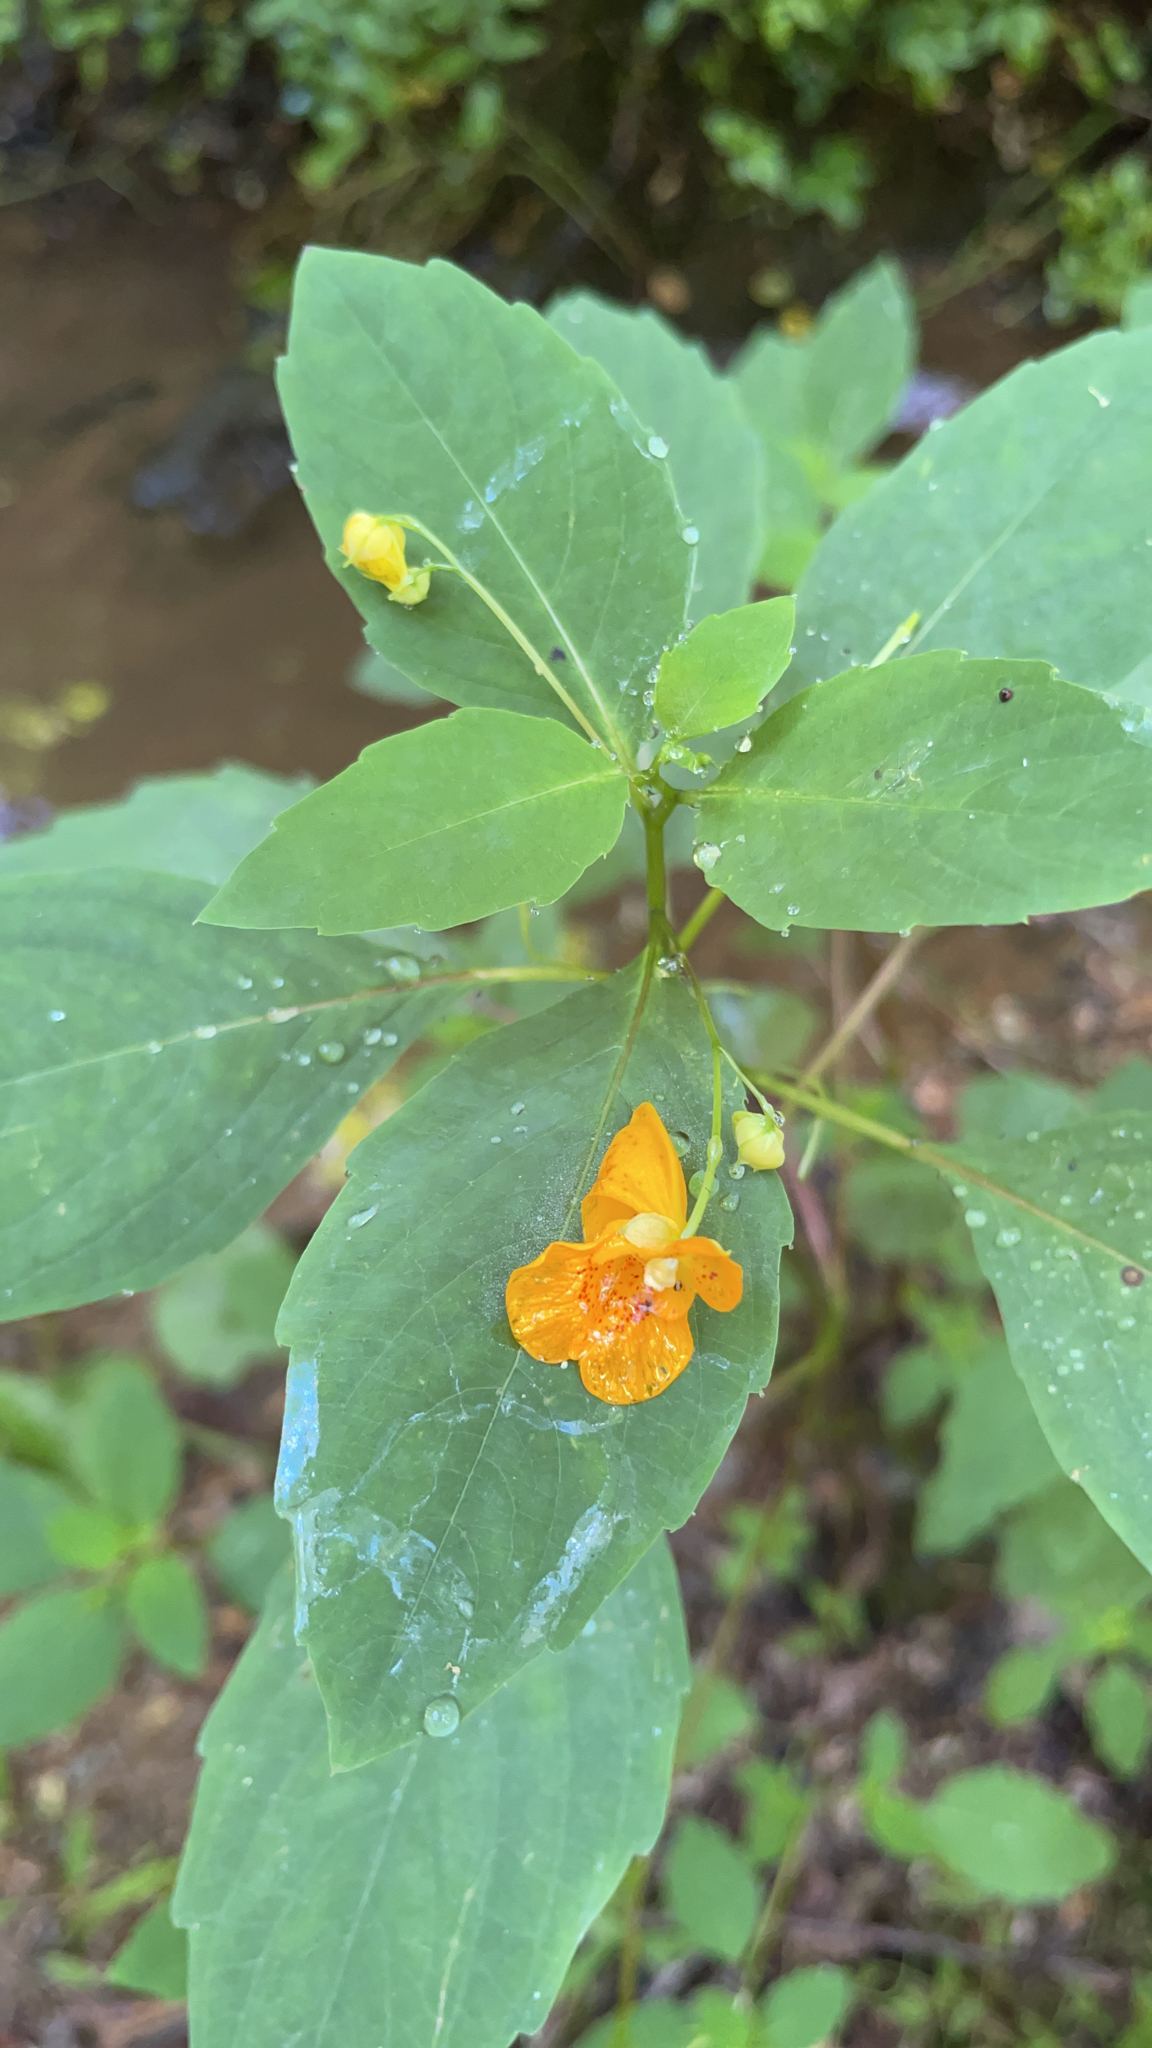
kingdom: Plantae
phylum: Tracheophyta
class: Magnoliopsida
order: Ericales
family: Balsaminaceae
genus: Impatiens
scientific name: Impatiens capensis
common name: Orange balsam
